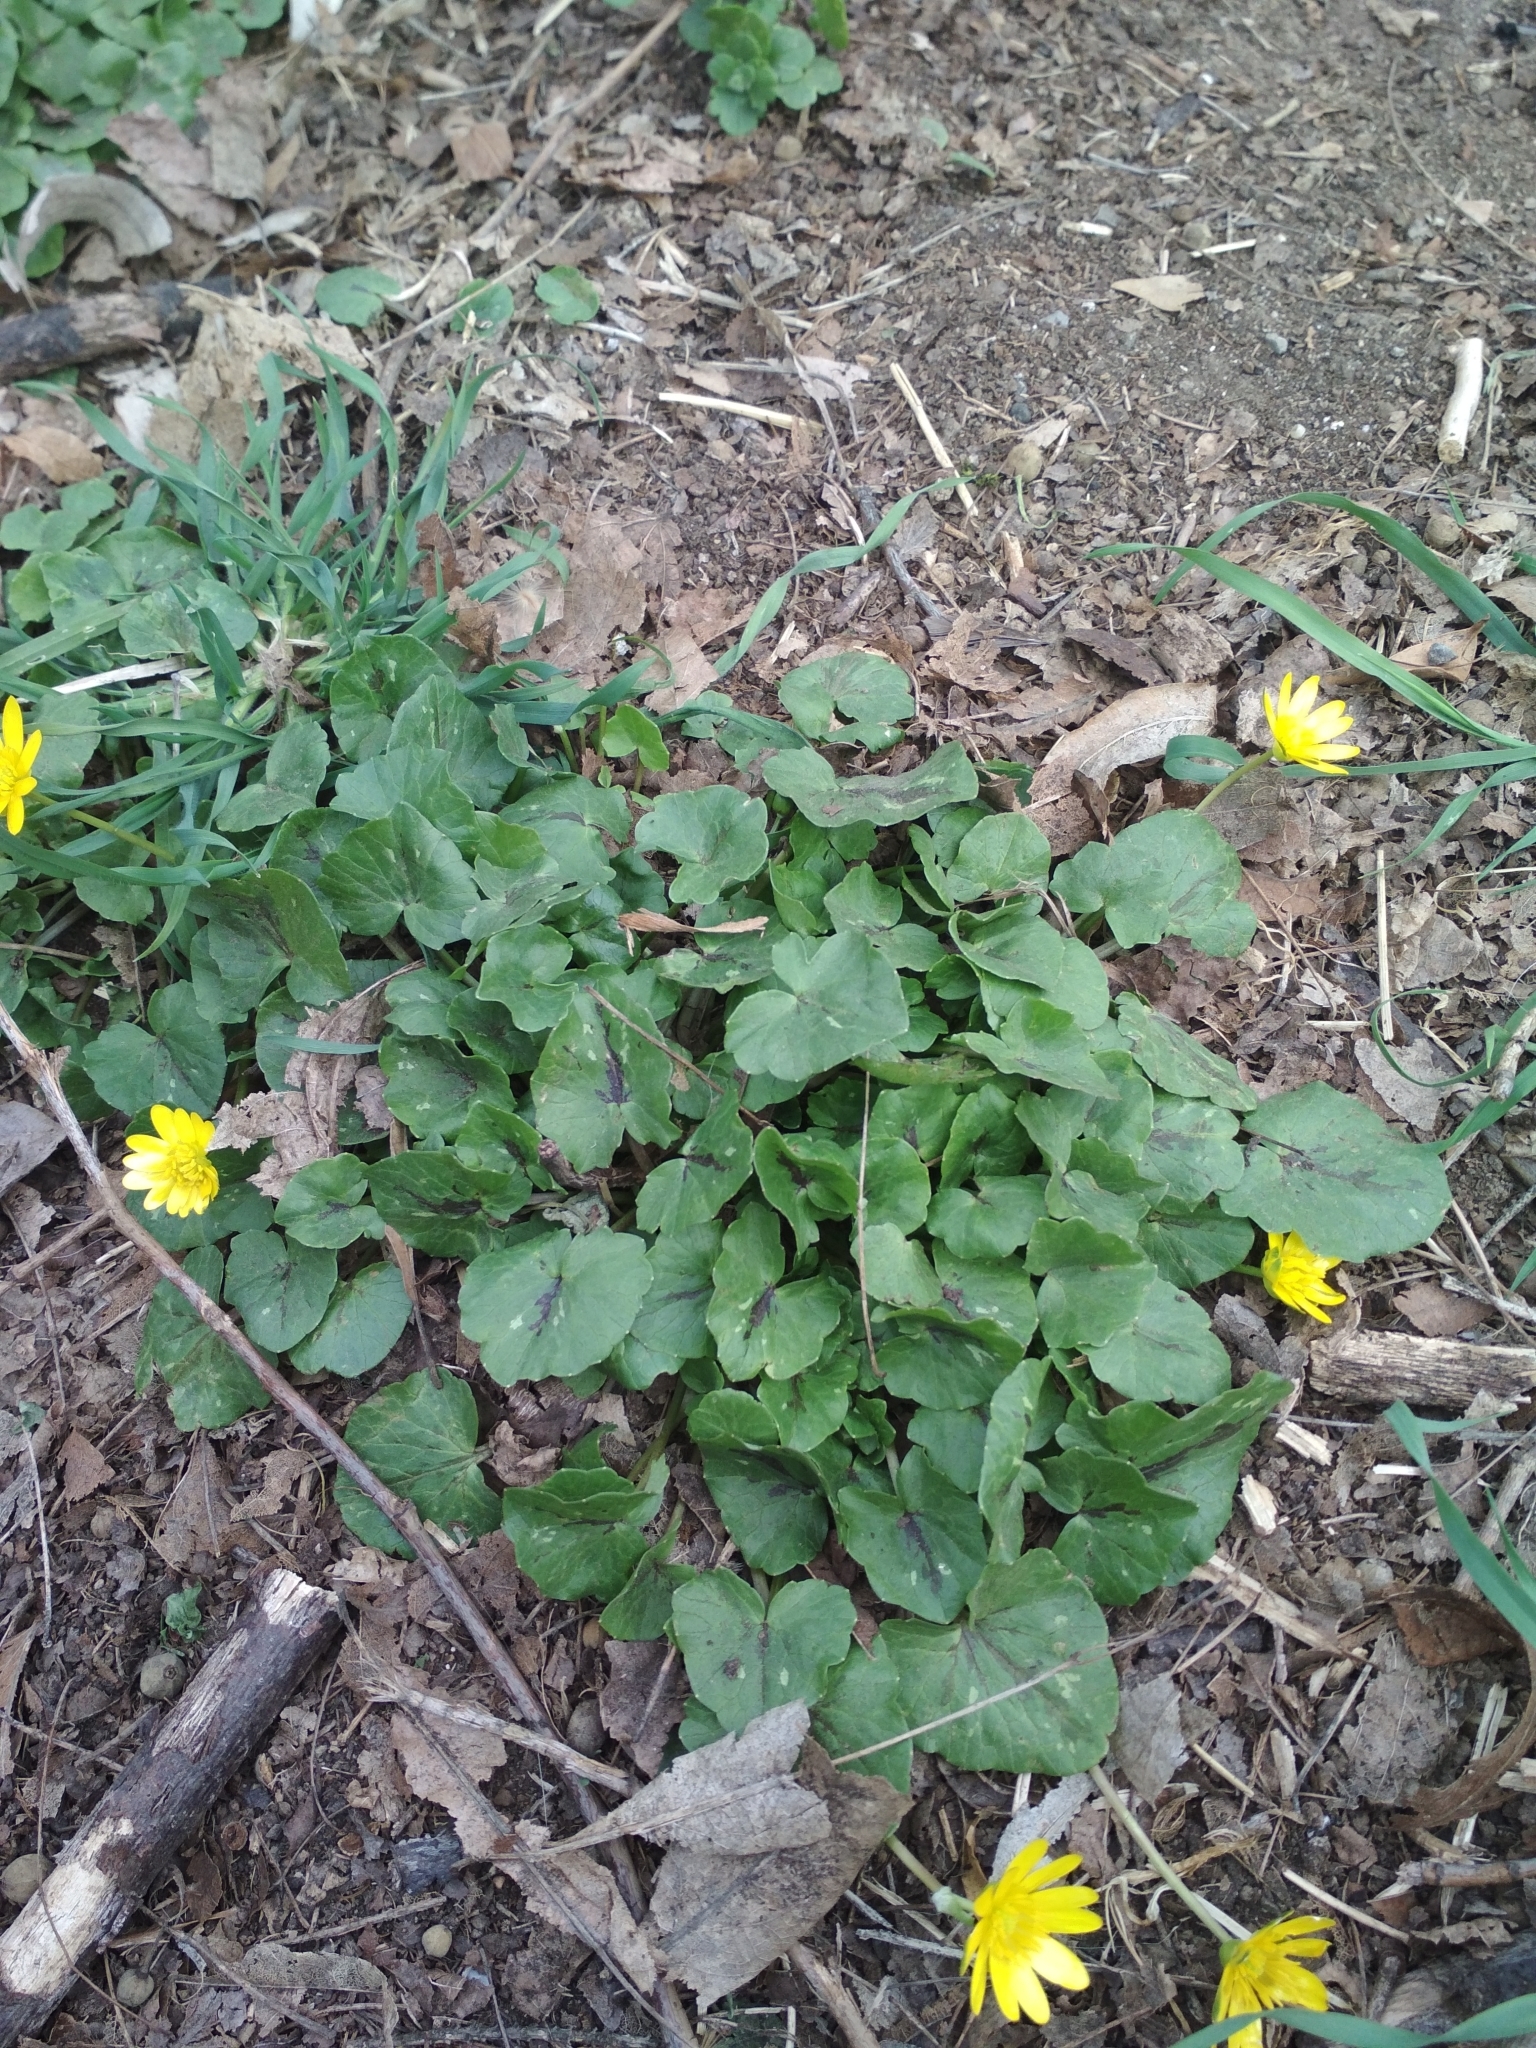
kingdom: Plantae
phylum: Tracheophyta
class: Magnoliopsida
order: Ranunculales
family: Ranunculaceae
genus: Ficaria
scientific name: Ficaria verna
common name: Lesser celandine
